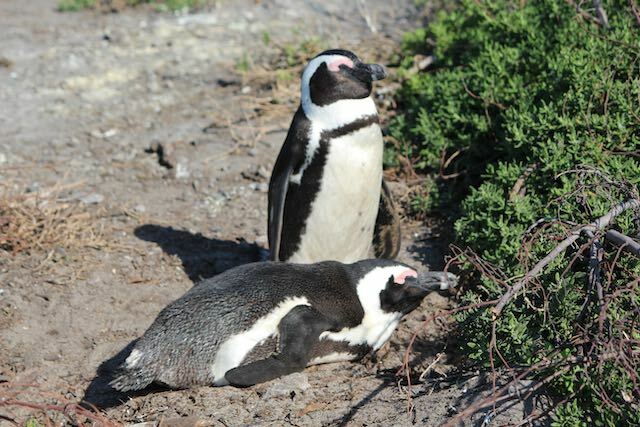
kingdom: Animalia
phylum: Chordata
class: Aves
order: Sphenisciformes
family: Spheniscidae
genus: Spheniscus
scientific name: Spheniscus demersus
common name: African penguin
